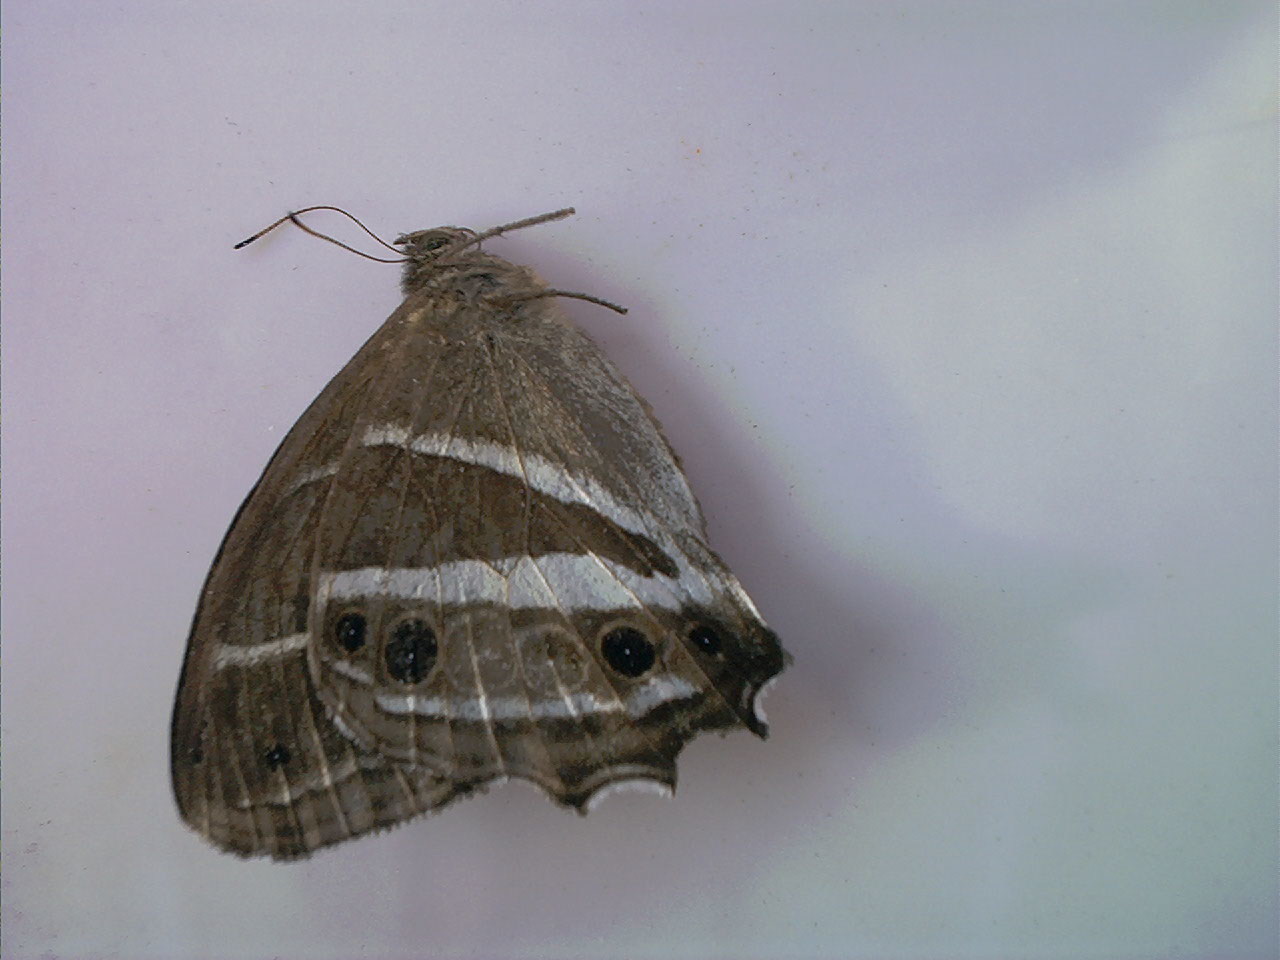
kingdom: Animalia
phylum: Arthropoda
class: Insecta
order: Lepidoptera
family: Nymphalidae
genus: Parataygetis
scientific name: Parataygetis albinotata
